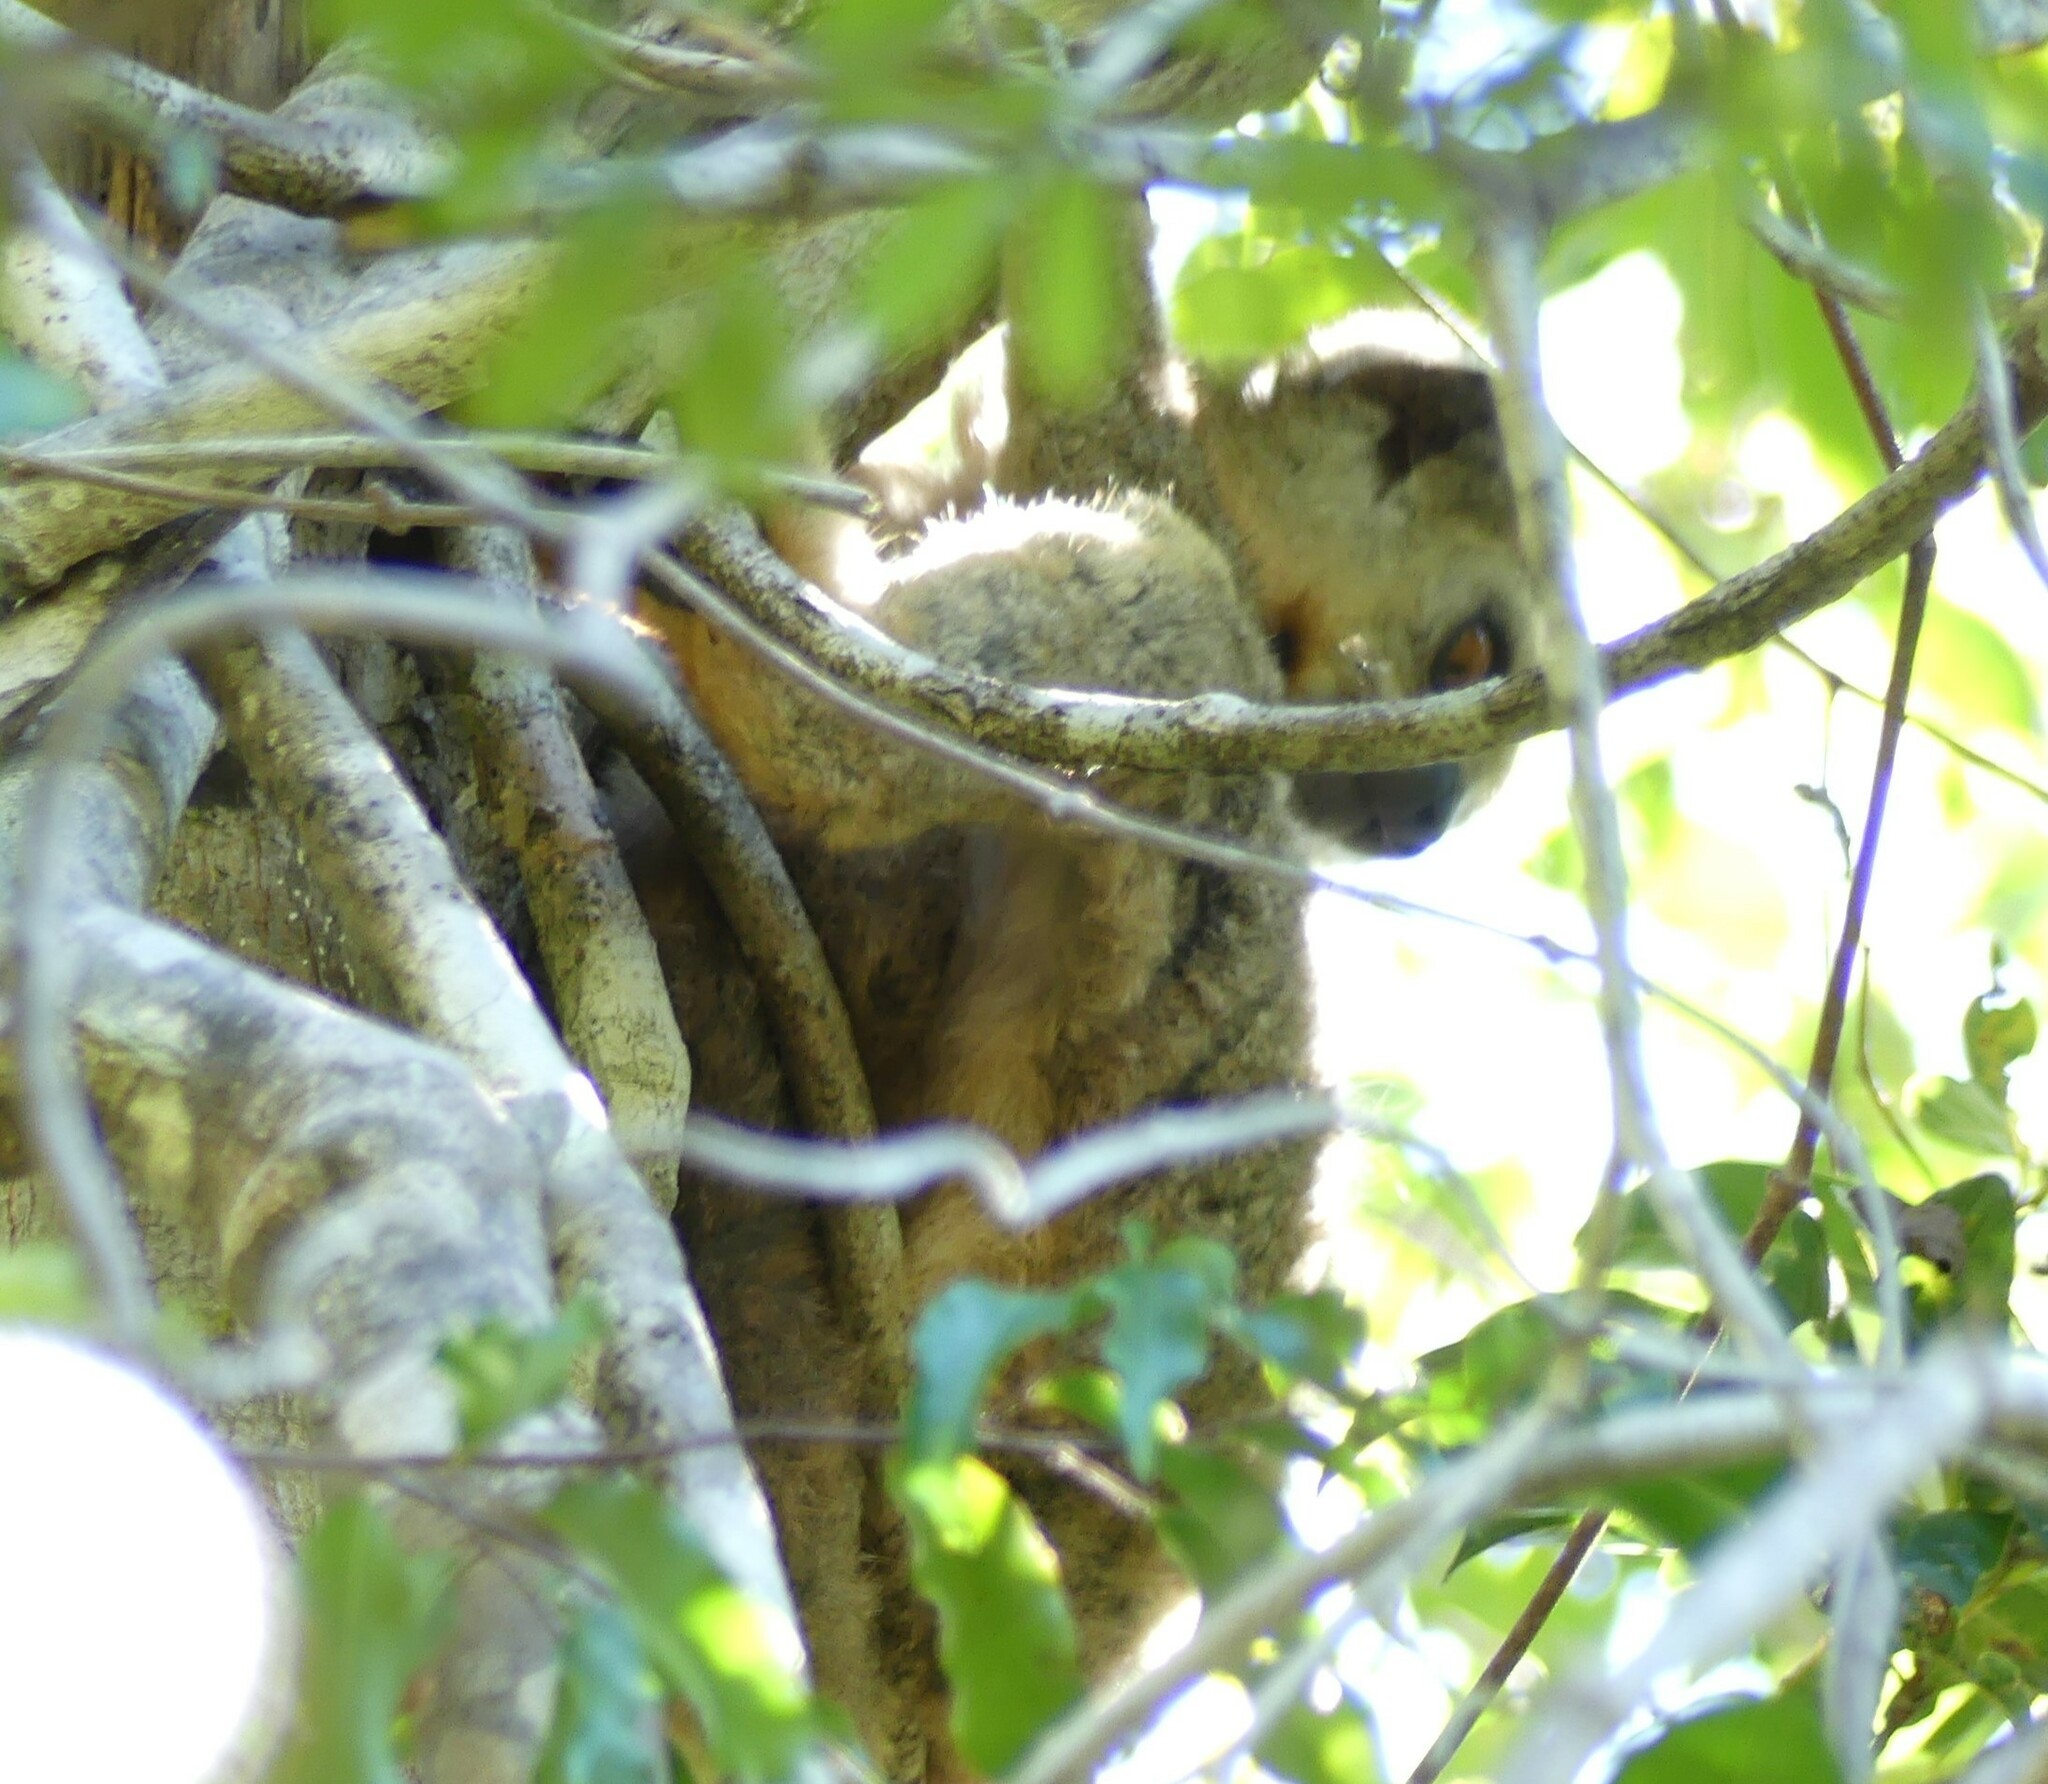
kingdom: Animalia
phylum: Chordata
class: Mammalia
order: Primates
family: Indriidae
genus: Avahi
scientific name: Avahi occidentalis
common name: Western woolly lemur
